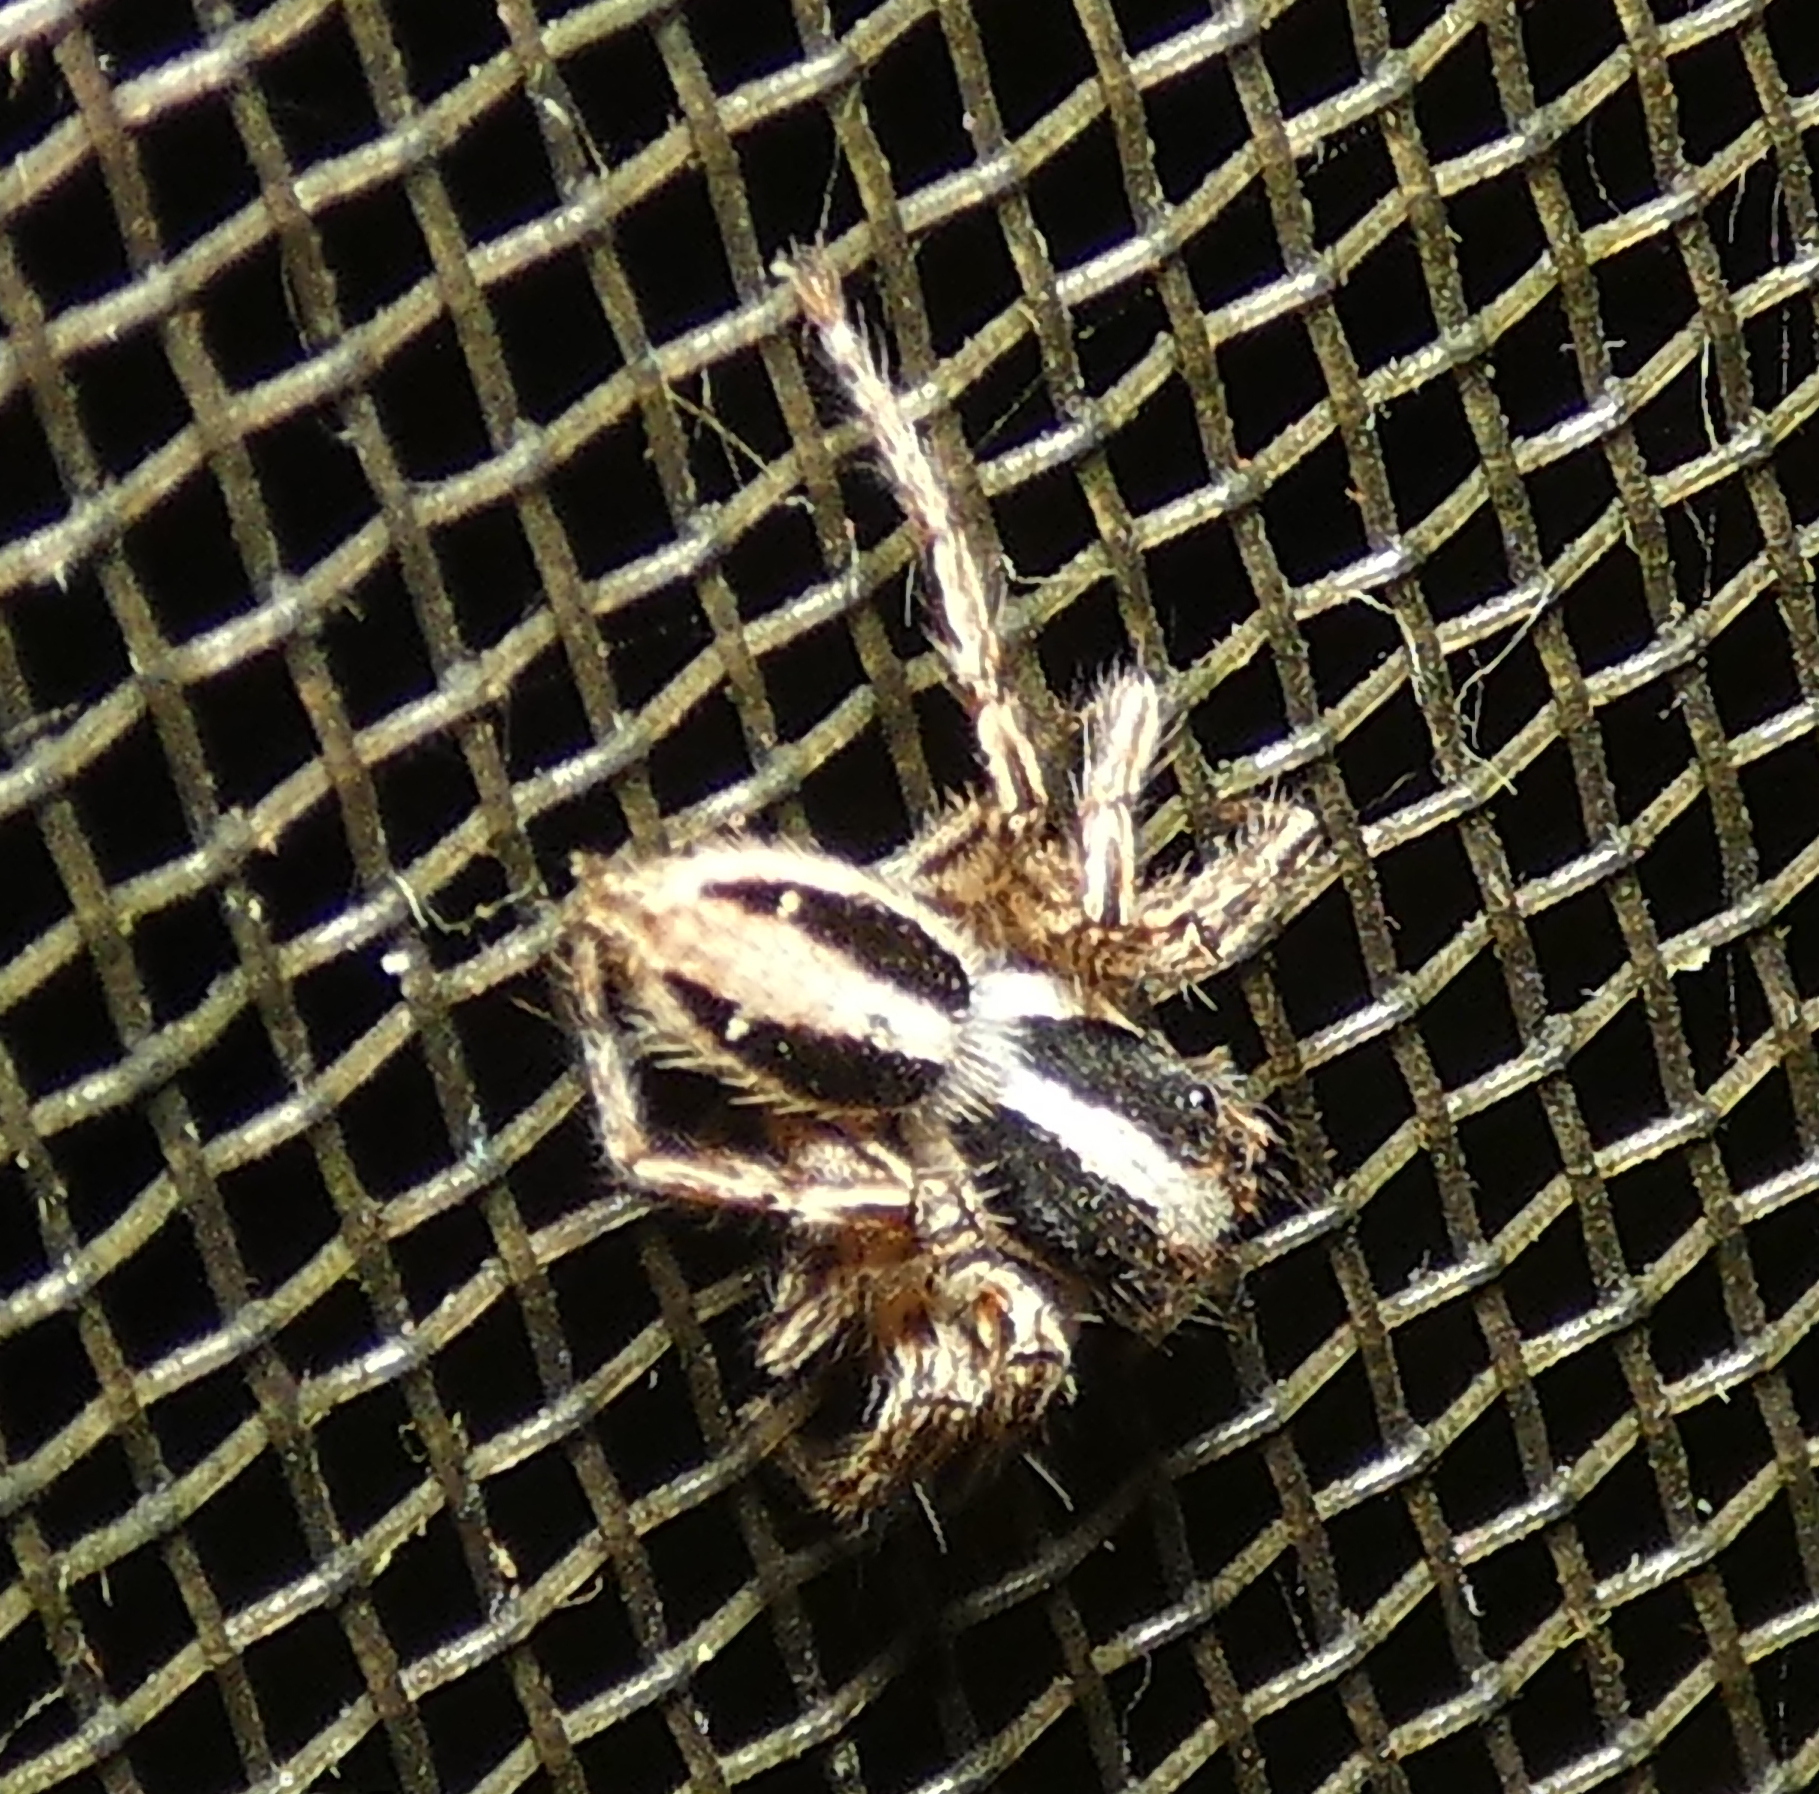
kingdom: Animalia
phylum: Arthropoda
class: Arachnida
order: Araneae
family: Salticidae
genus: Plexippus
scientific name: Plexippus paykulli
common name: Pantropical jumper
